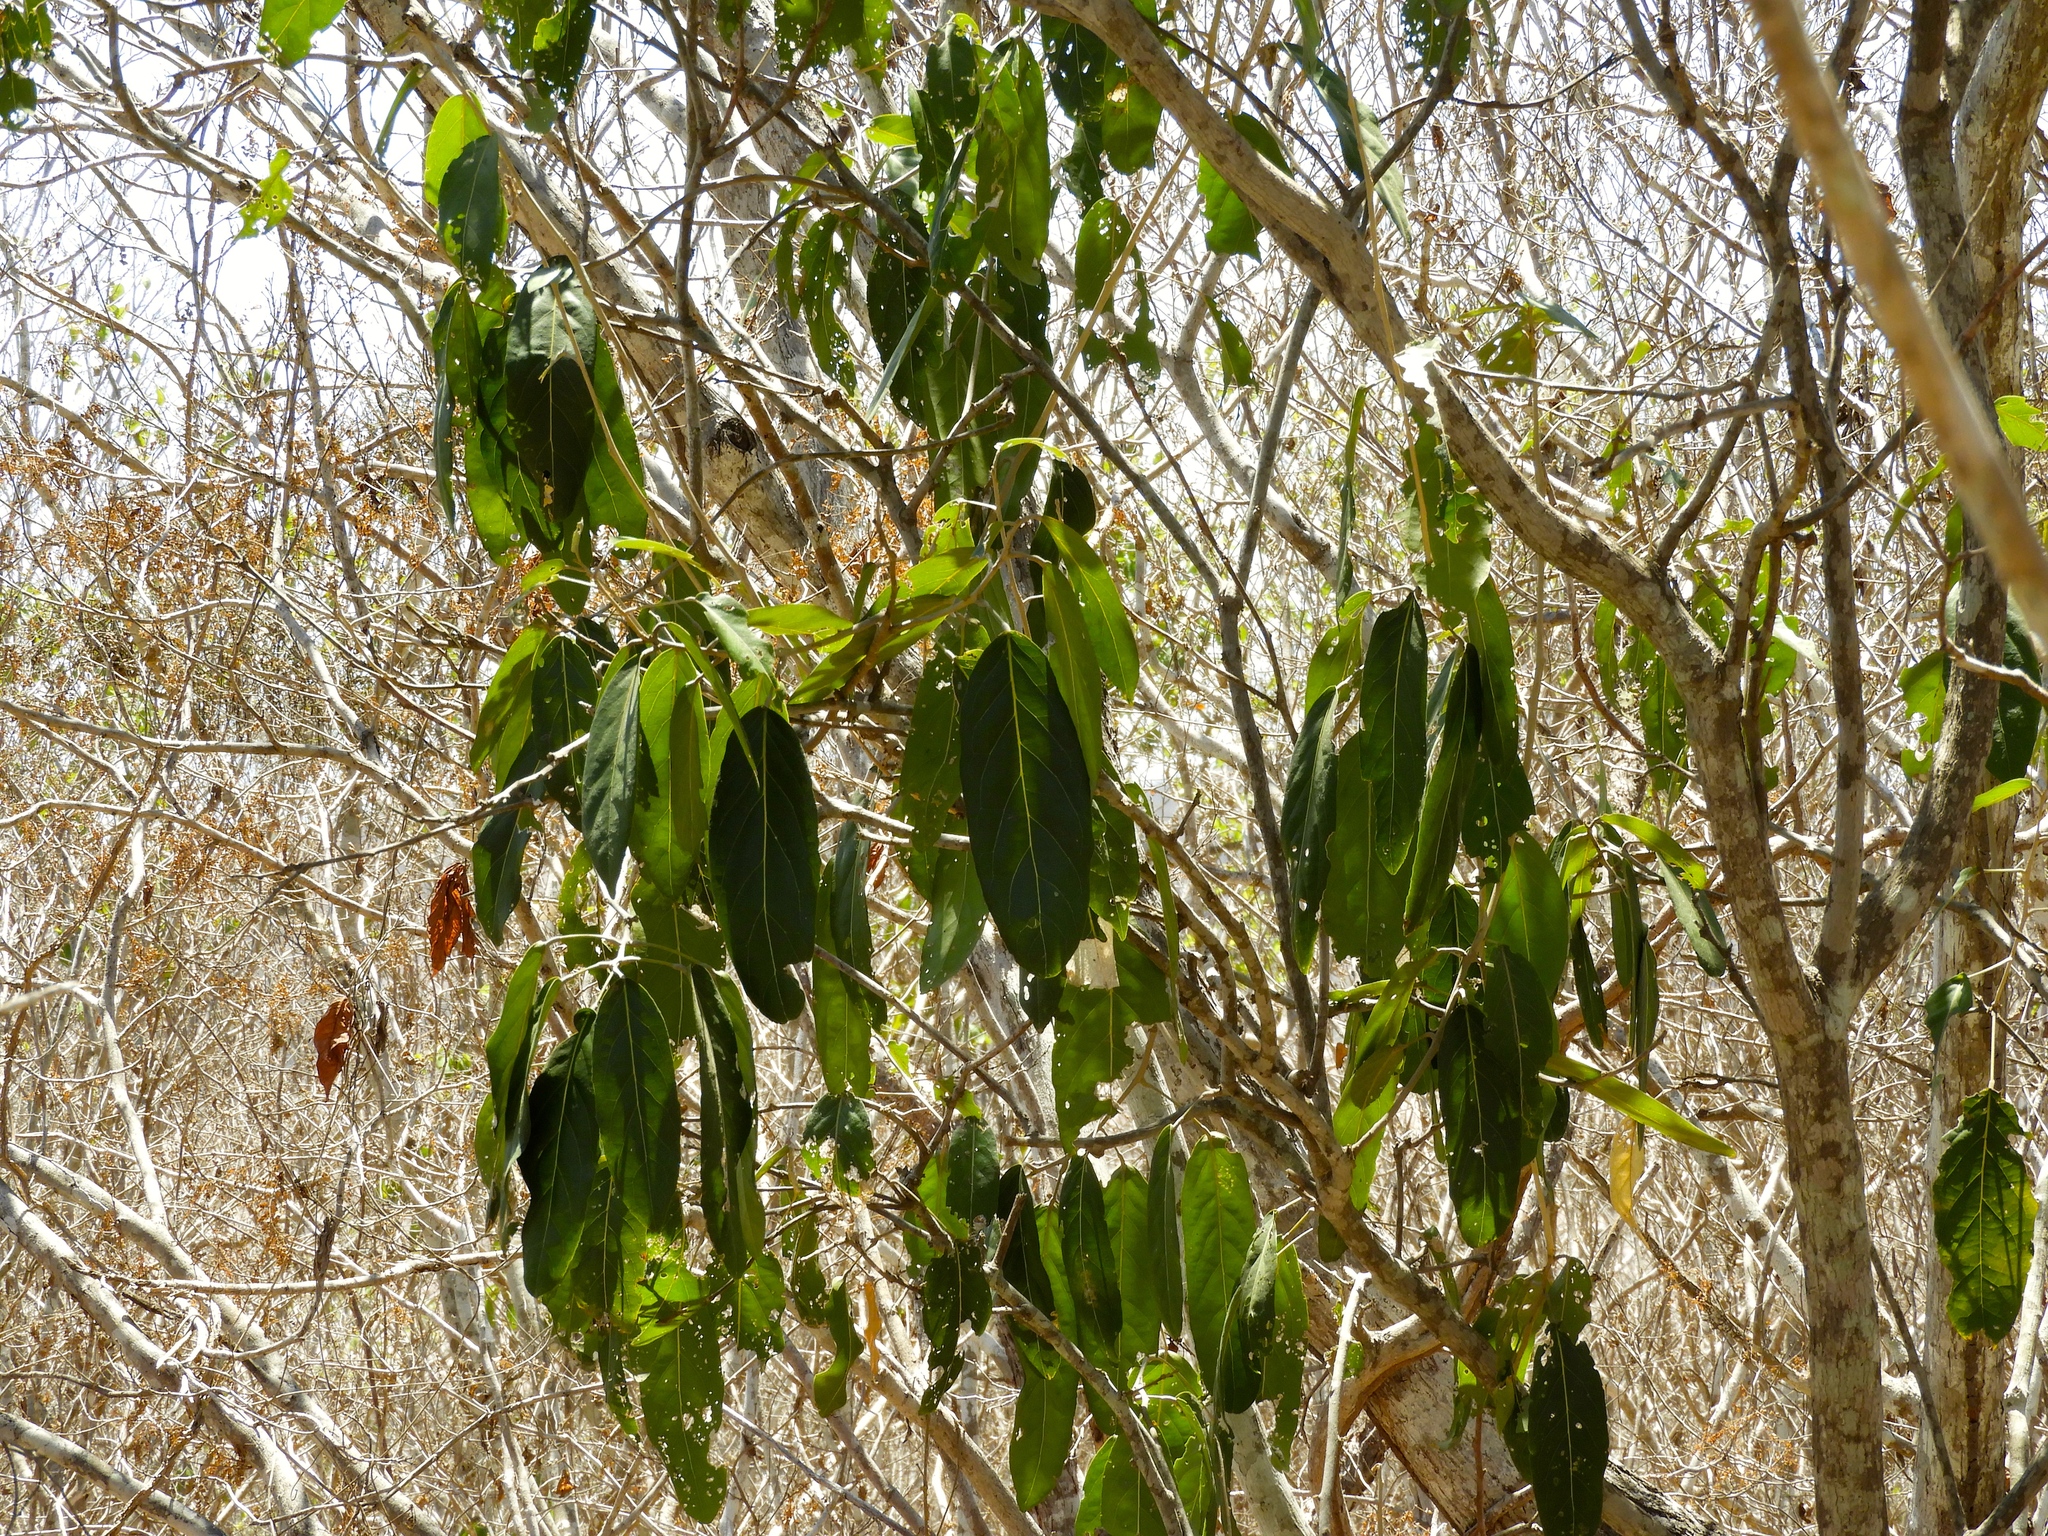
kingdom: Plantae
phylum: Tracheophyta
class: Magnoliopsida
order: Brassicales
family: Capparaceae
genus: Morisonia
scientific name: Morisonia americana
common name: Wild mesple
